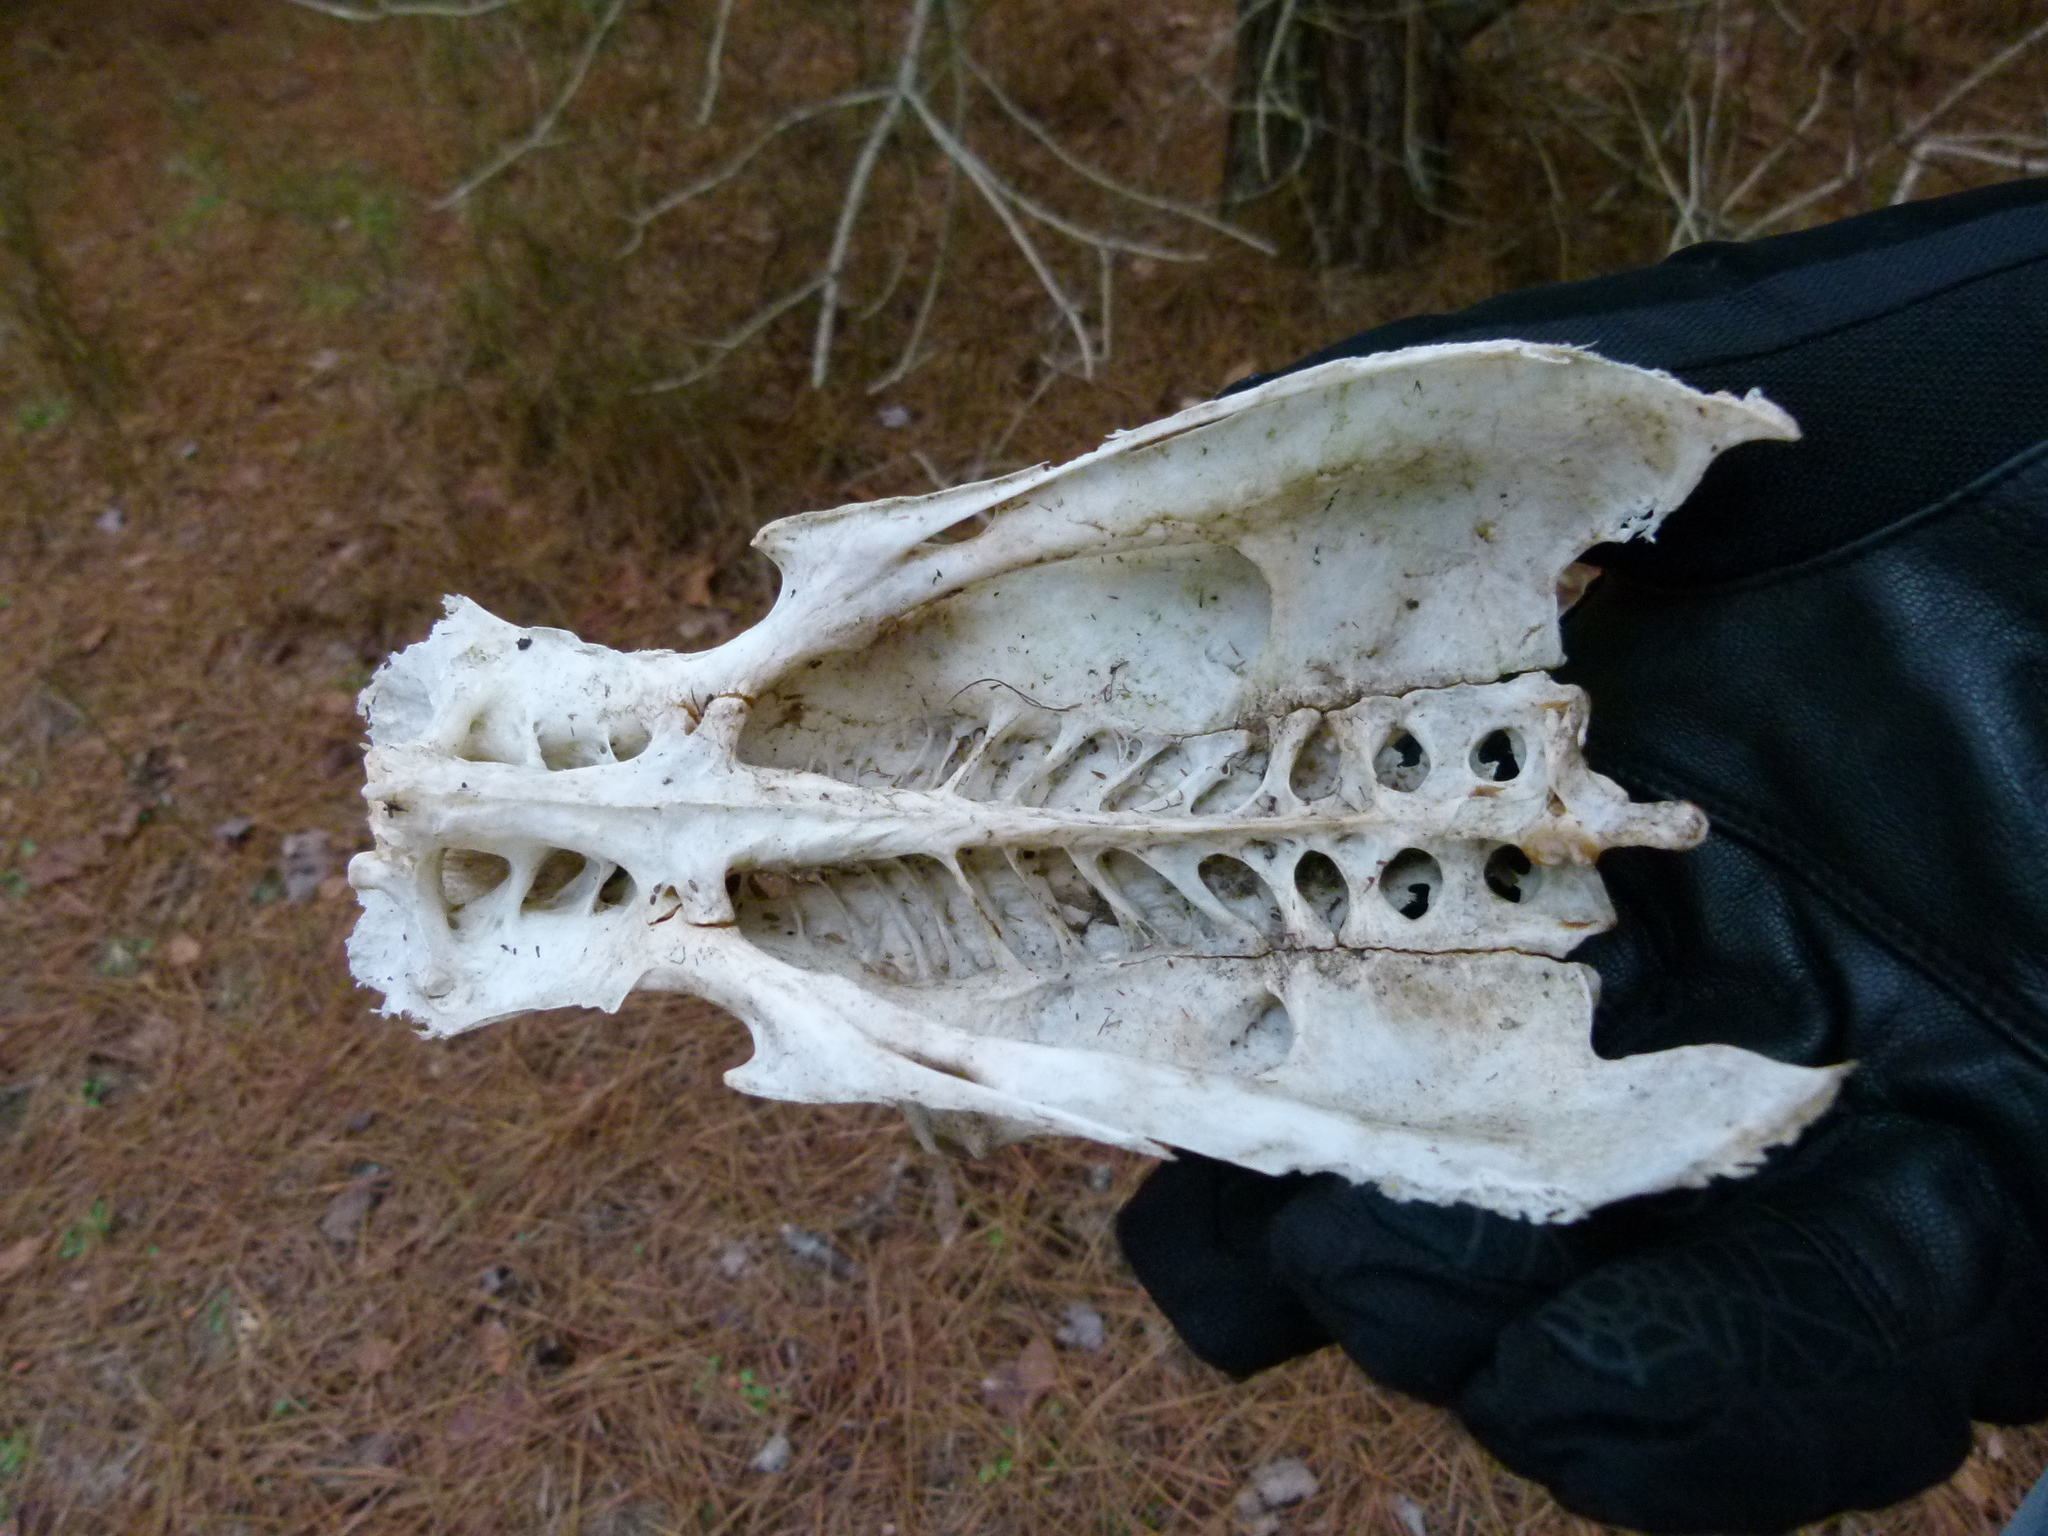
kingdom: Animalia
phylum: Chordata
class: Aves
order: Galliformes
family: Phasianidae
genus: Meleagris
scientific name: Meleagris gallopavo
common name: Wild turkey
